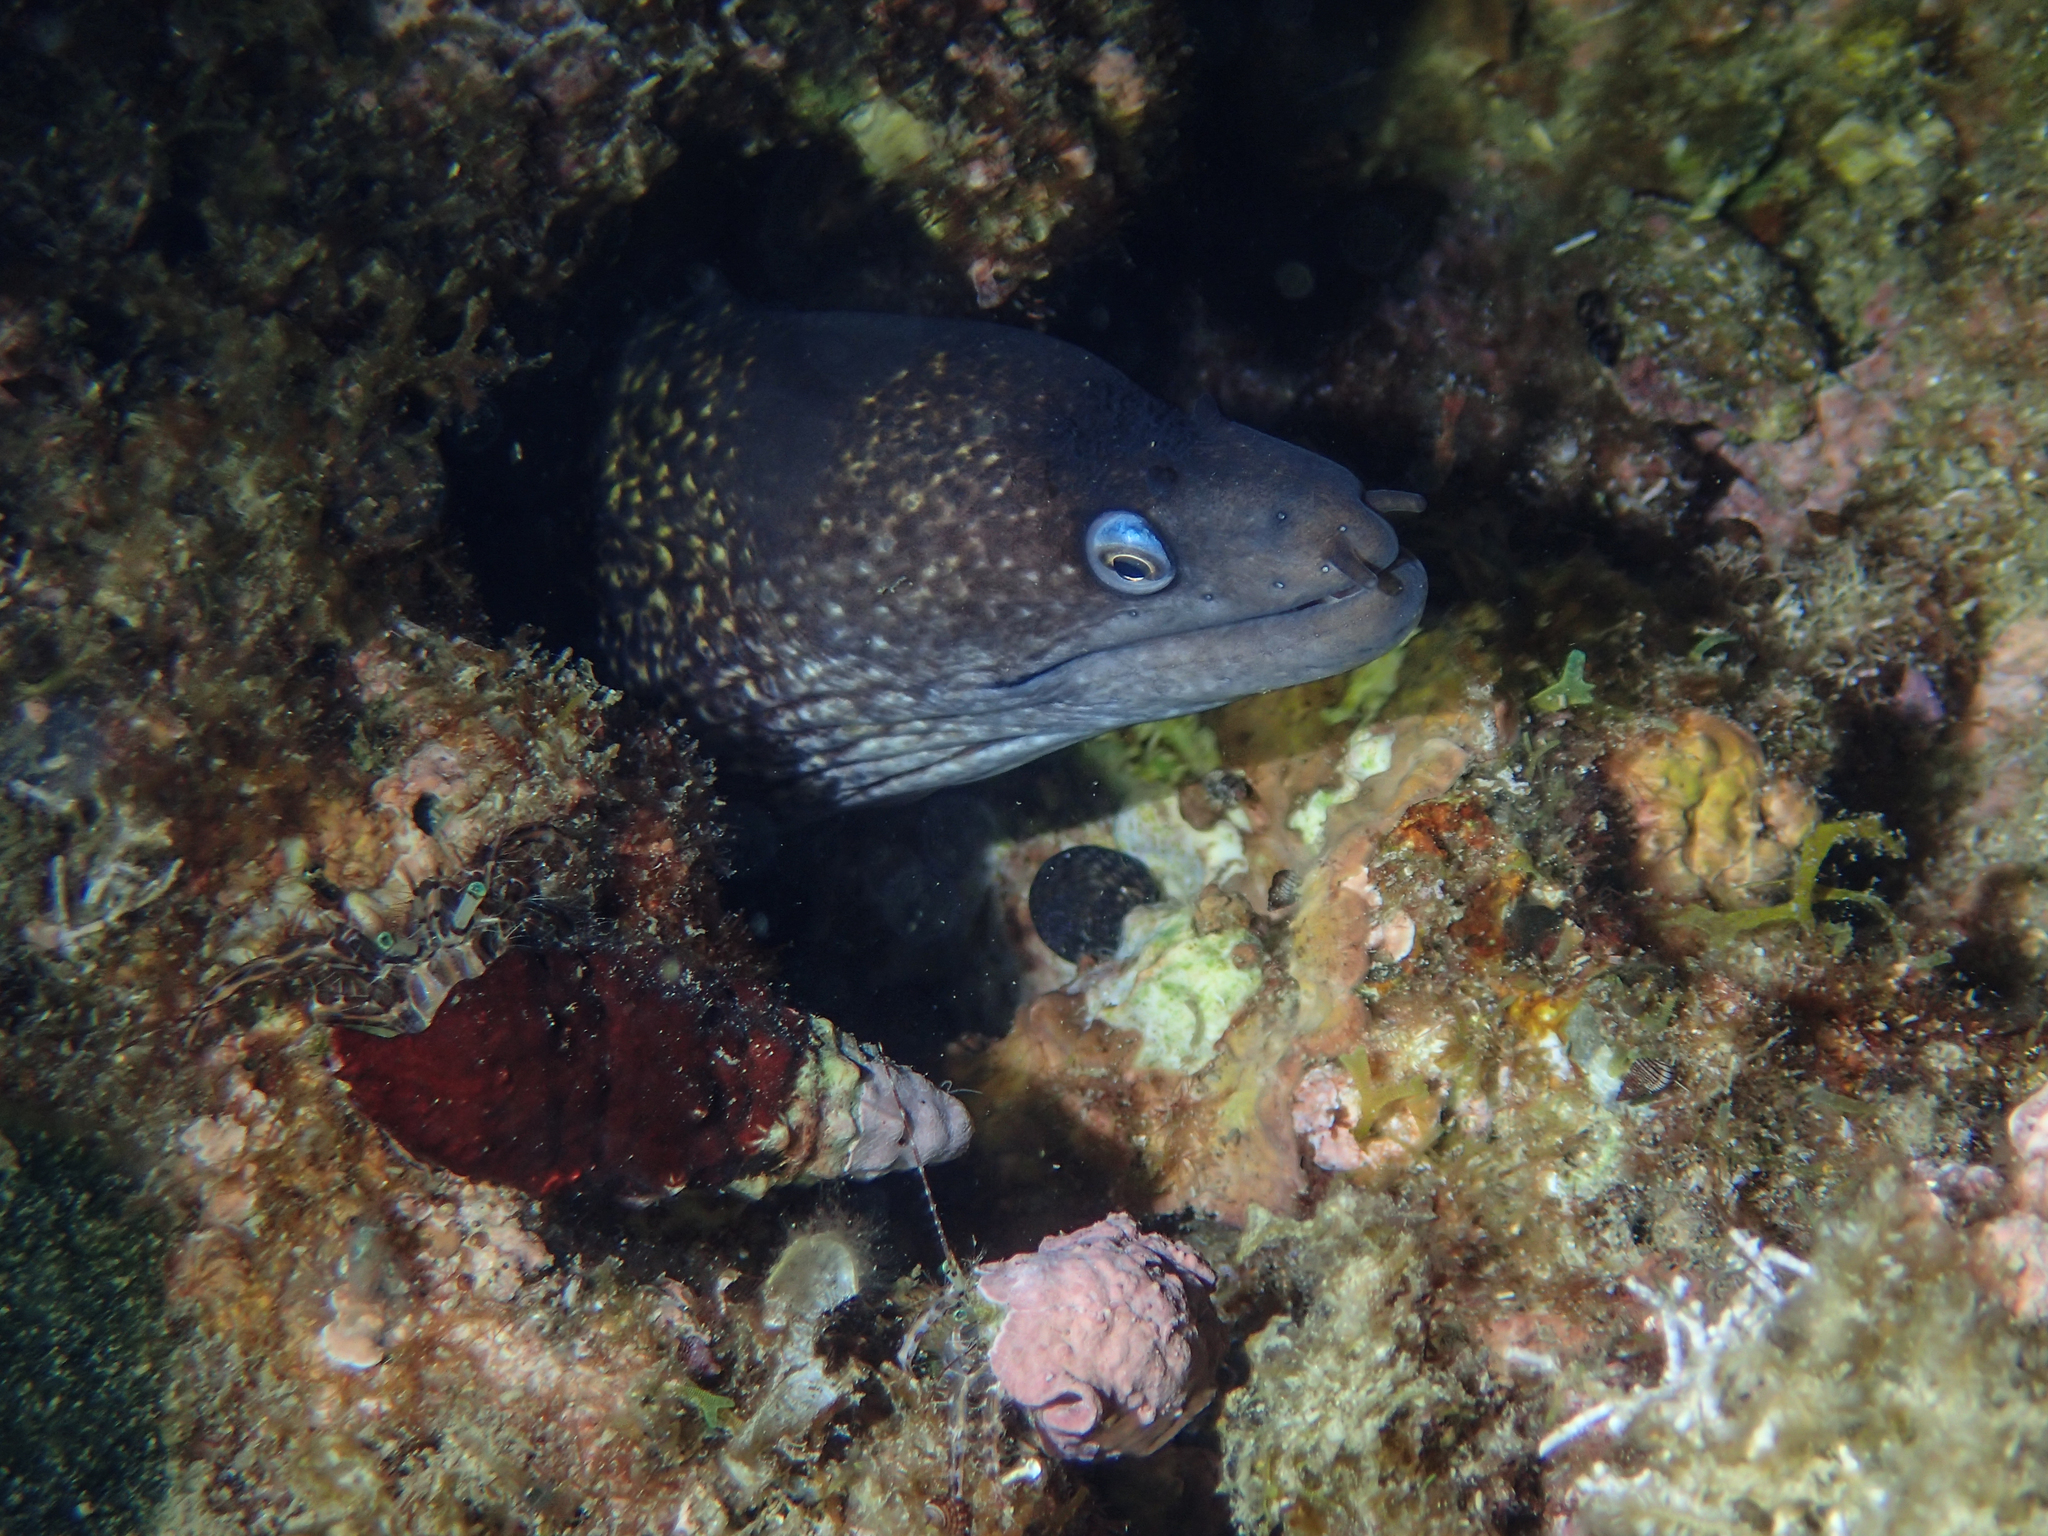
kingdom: Animalia
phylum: Chordata
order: Anguilliformes
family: Muraenidae
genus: Muraena
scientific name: Muraena helena
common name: Mediterranean moray
